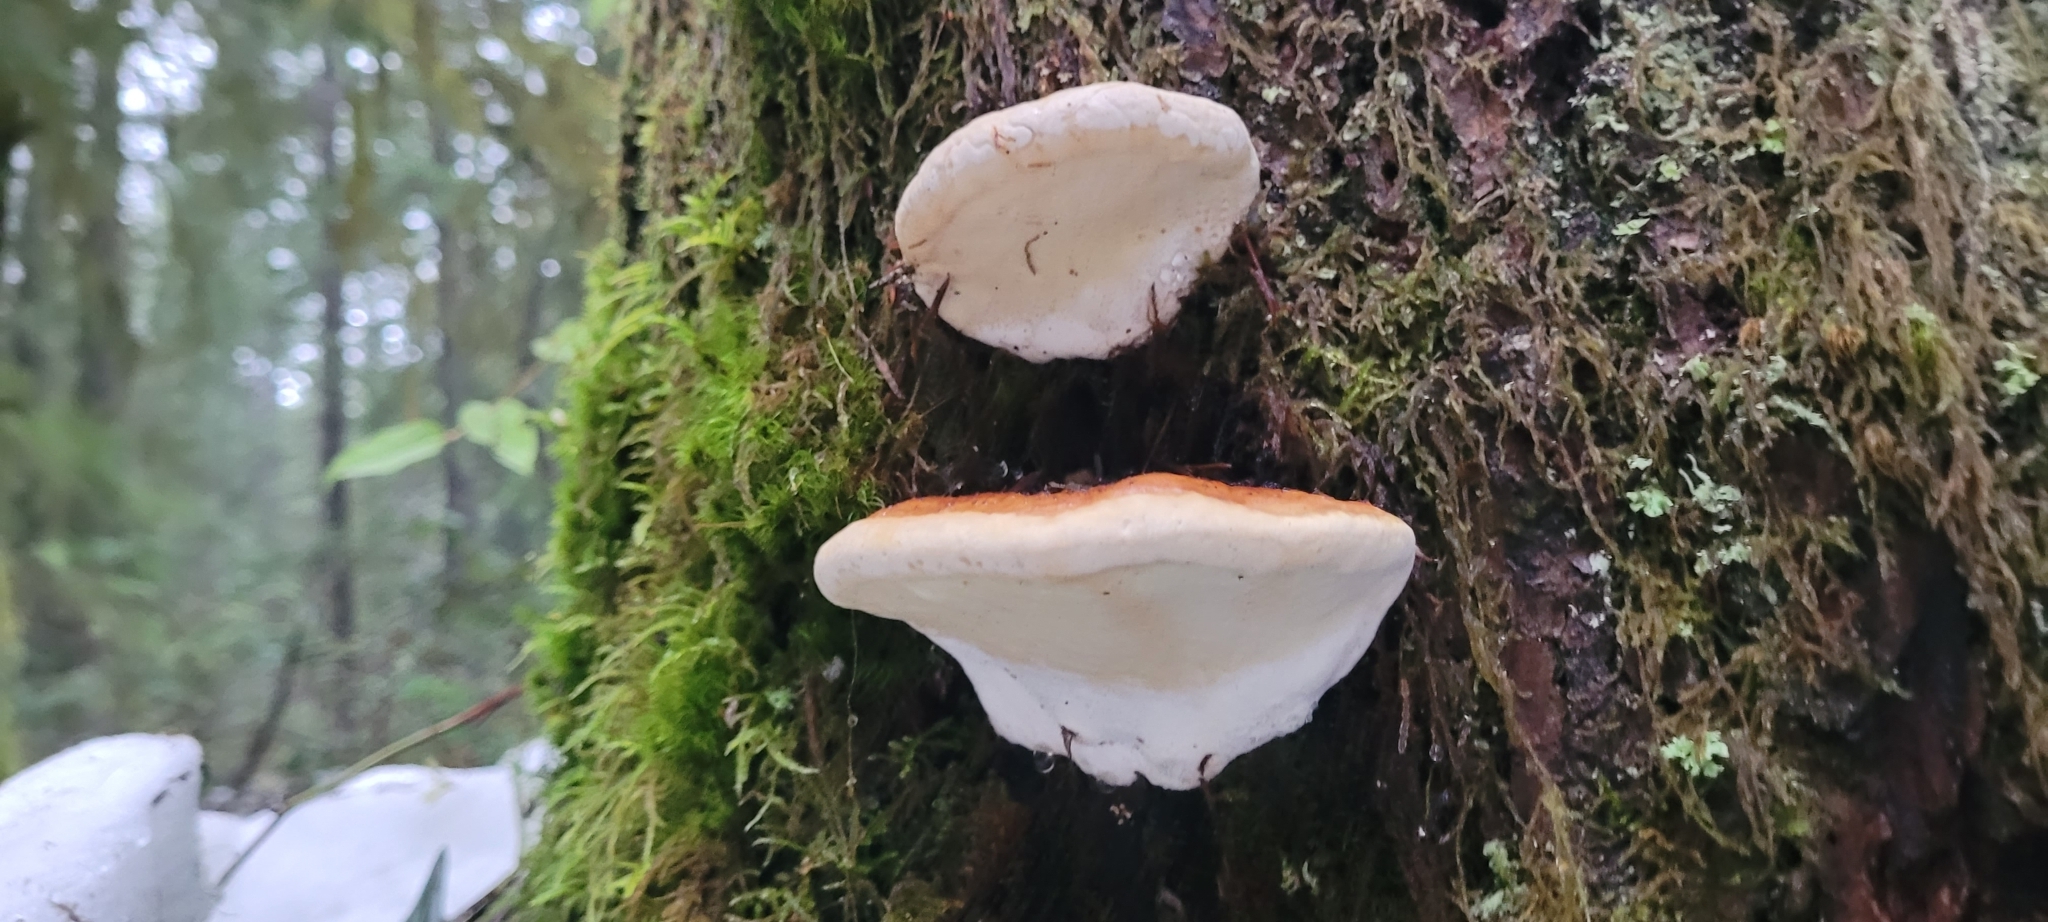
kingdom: Fungi
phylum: Basidiomycota
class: Agaricomycetes
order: Polyporales
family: Fomitopsidaceae
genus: Fomitopsis
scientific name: Fomitopsis mounceae
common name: Northern red belt
